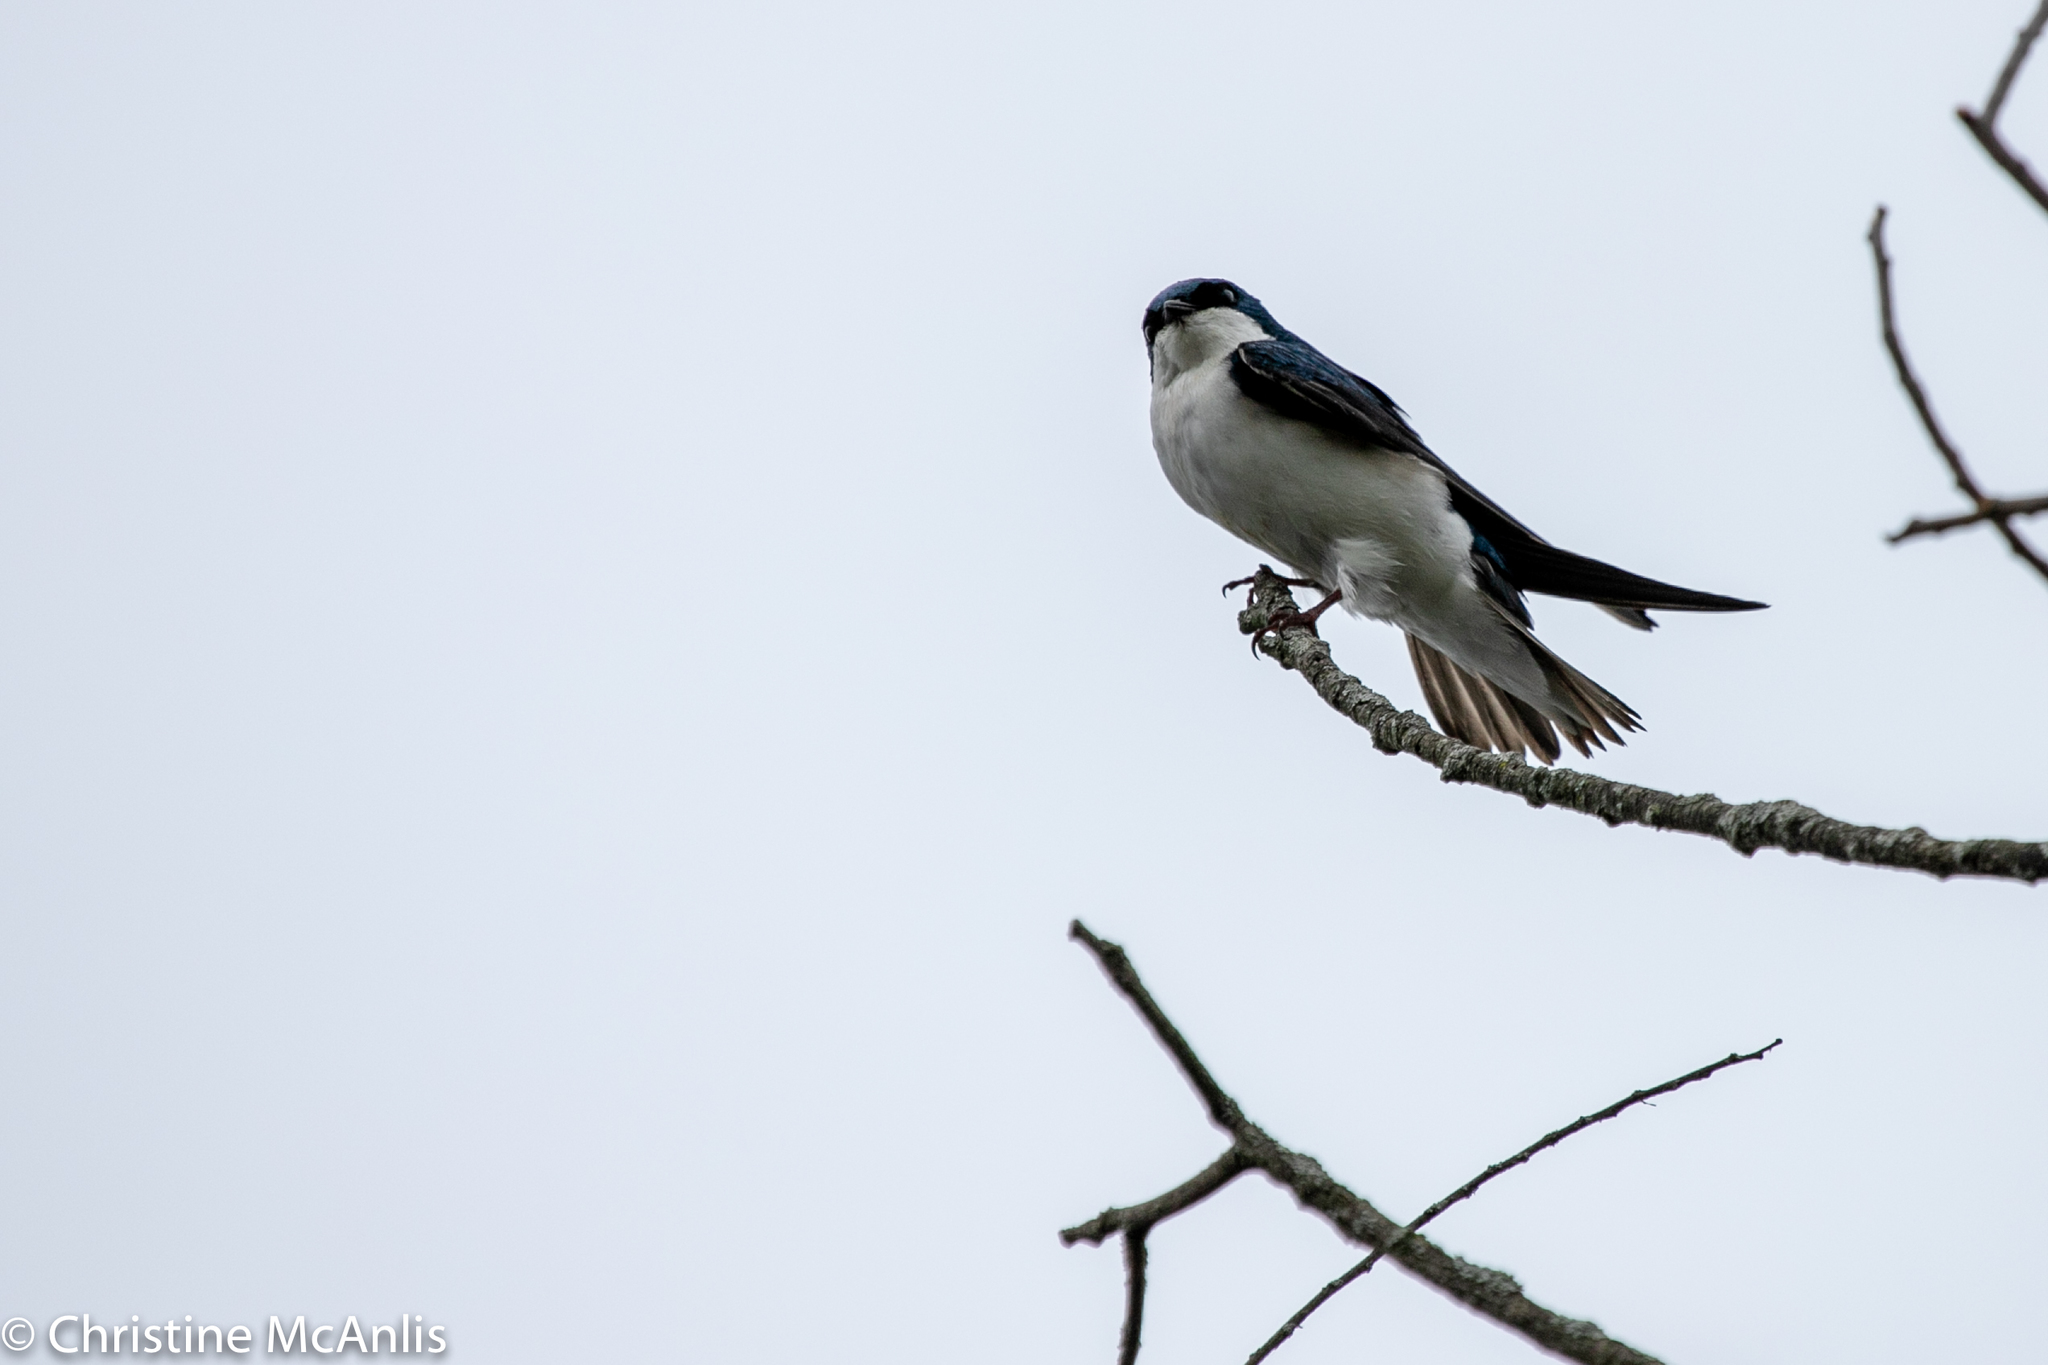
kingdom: Animalia
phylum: Chordata
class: Aves
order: Passeriformes
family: Hirundinidae
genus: Tachycineta
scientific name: Tachycineta bicolor
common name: Tree swallow
